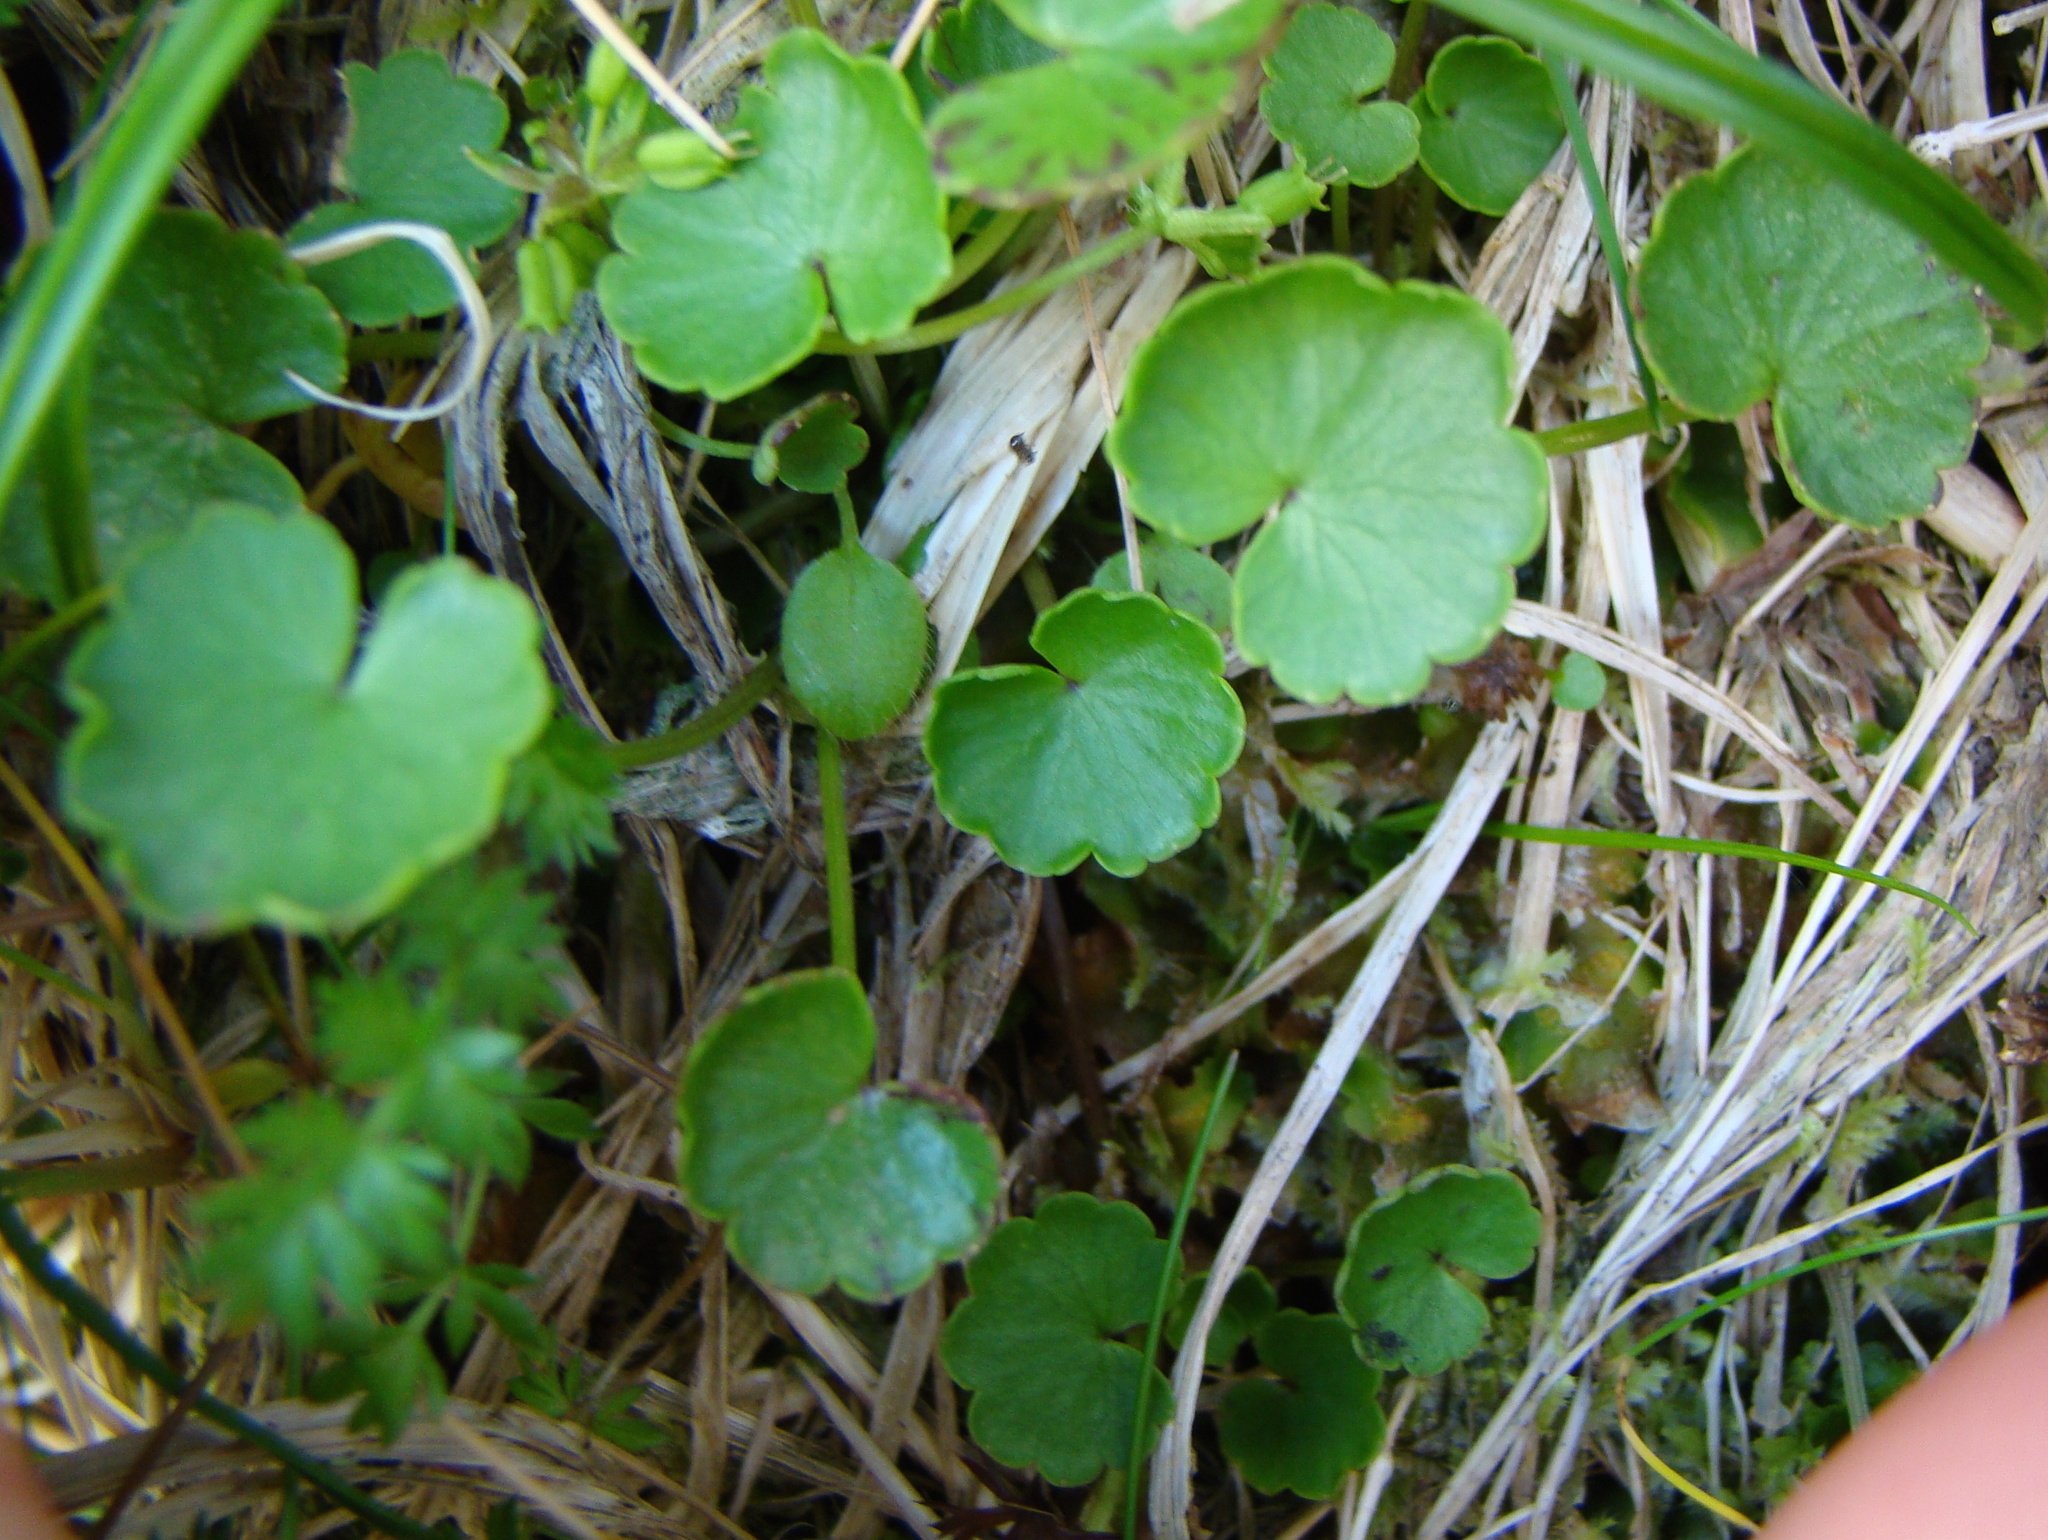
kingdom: Plantae
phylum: Tracheophyta
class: Magnoliopsida
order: Apiales
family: Apiaceae
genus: Azorella
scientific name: Azorella haastii
